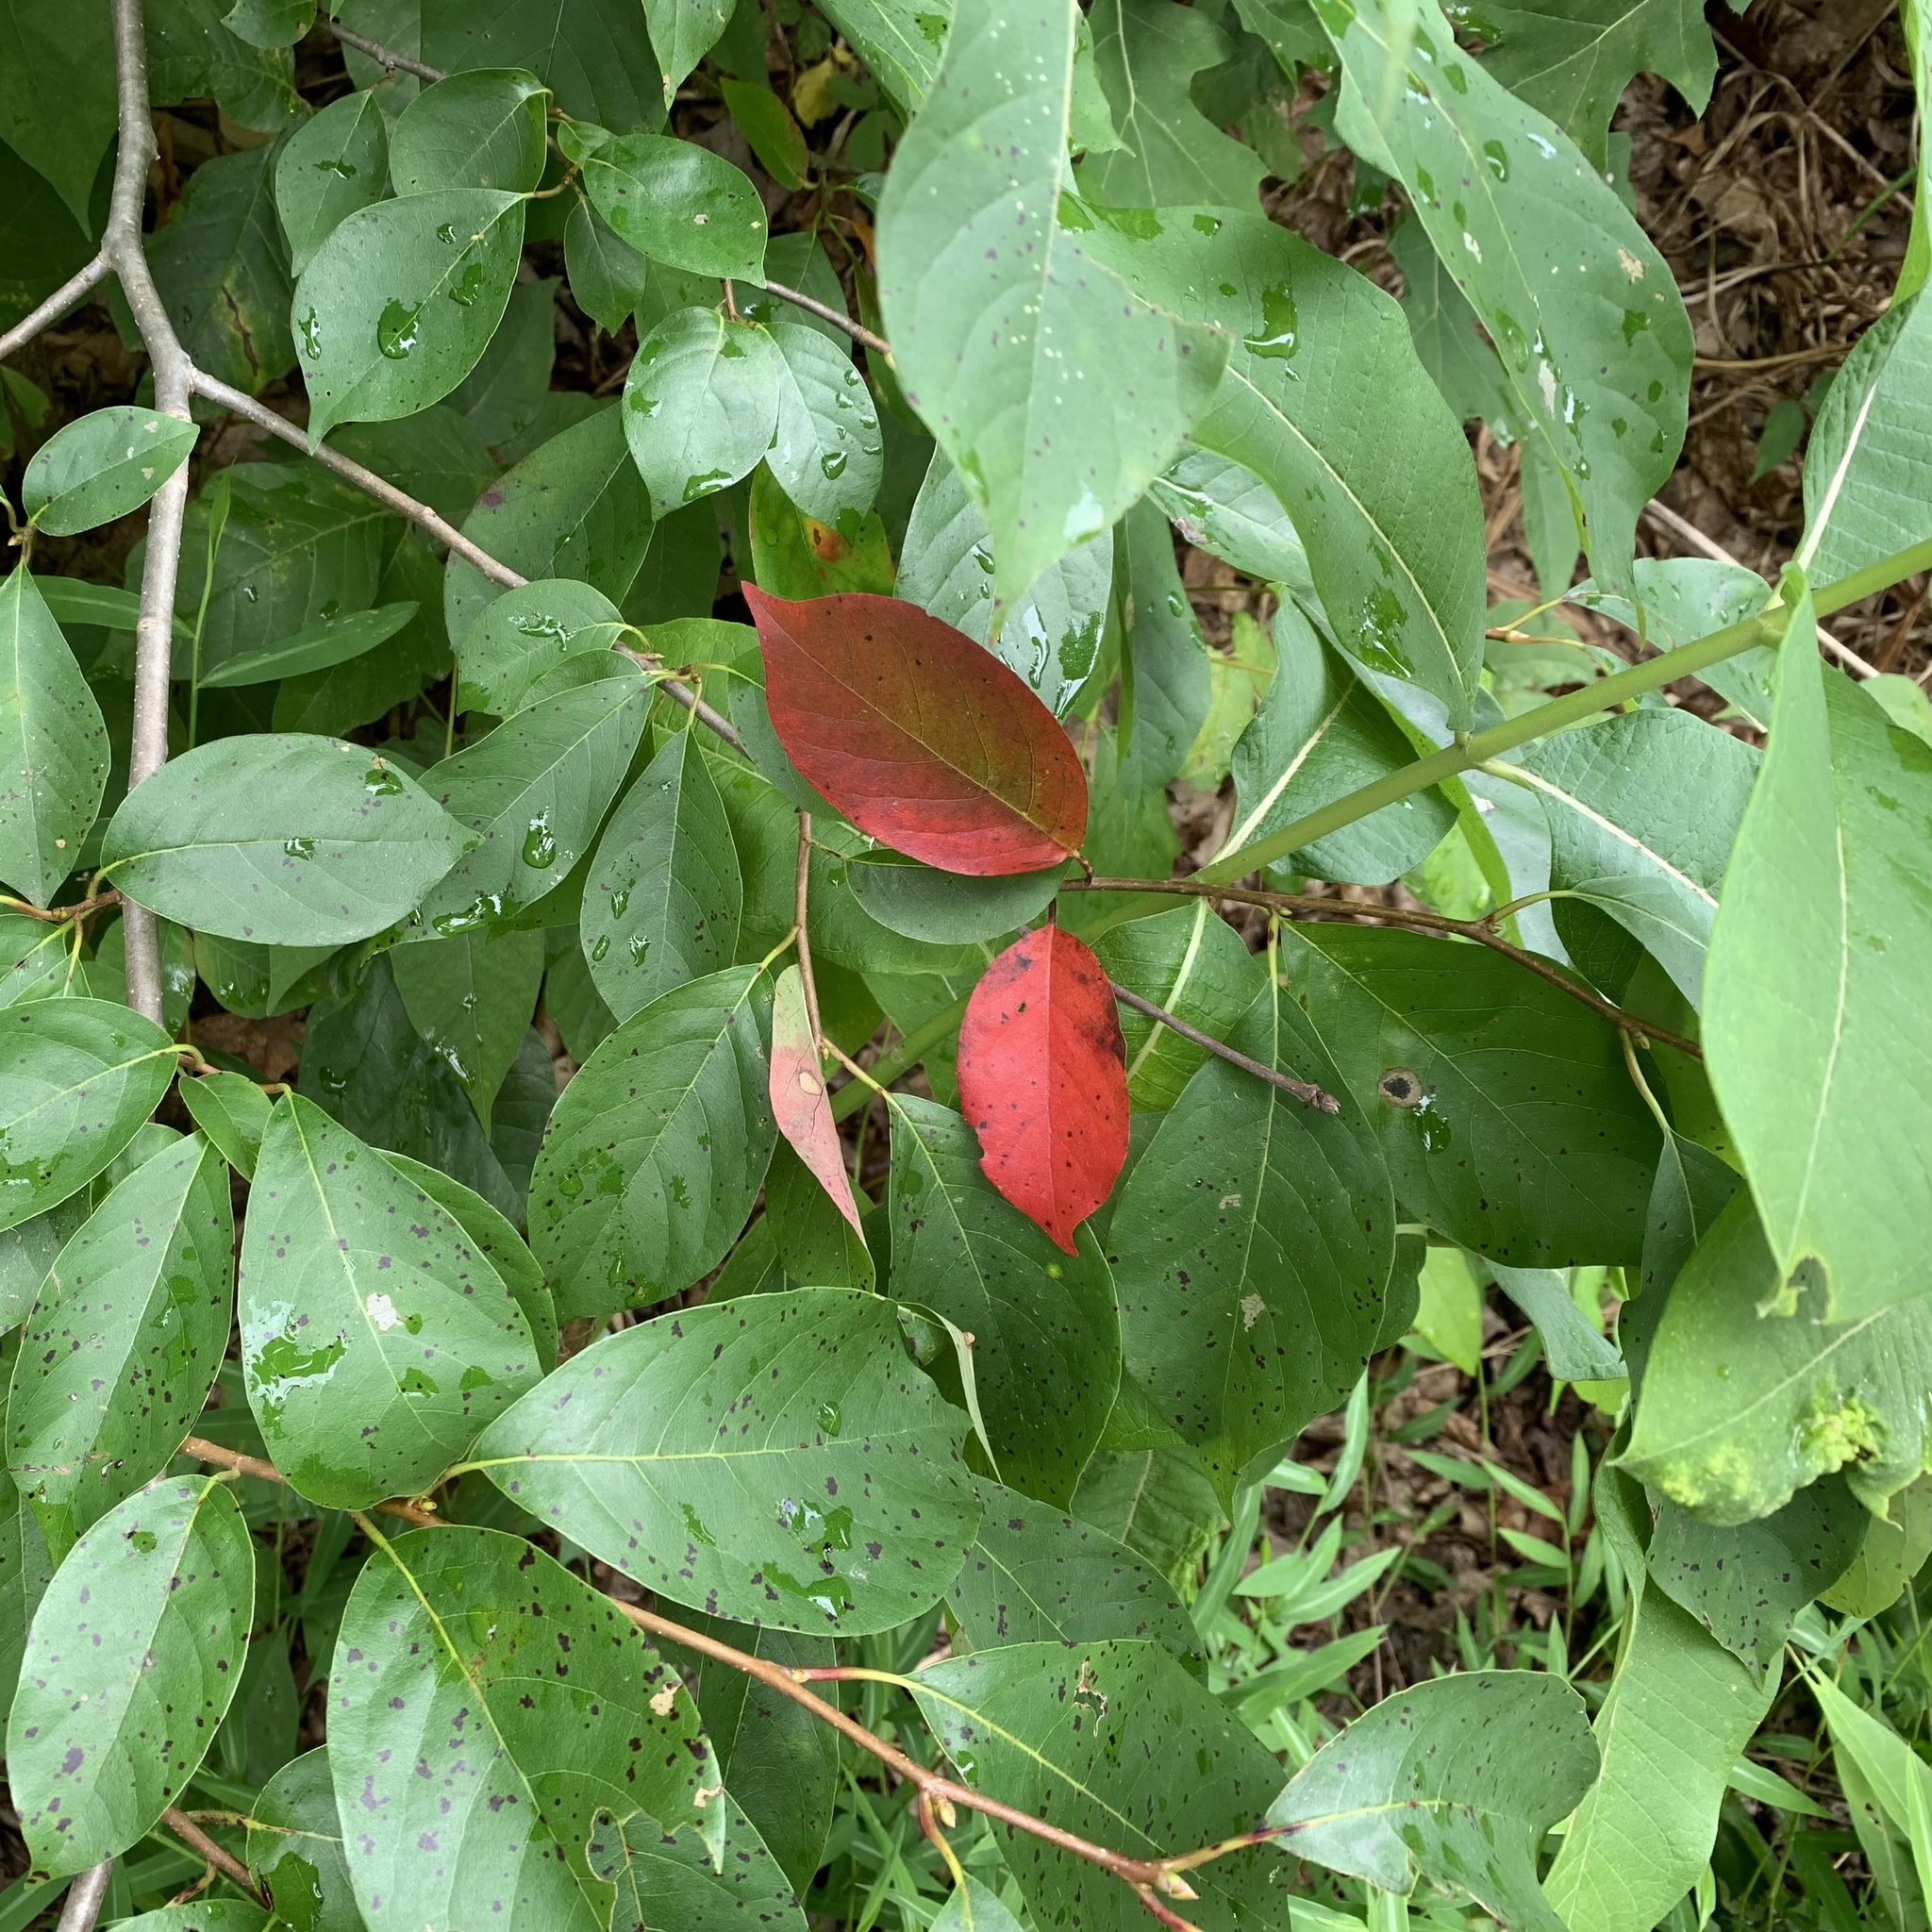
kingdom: Plantae
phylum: Tracheophyta
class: Magnoliopsida
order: Cornales
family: Nyssaceae
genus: Nyssa
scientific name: Nyssa sylvatica
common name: Black tupelo
